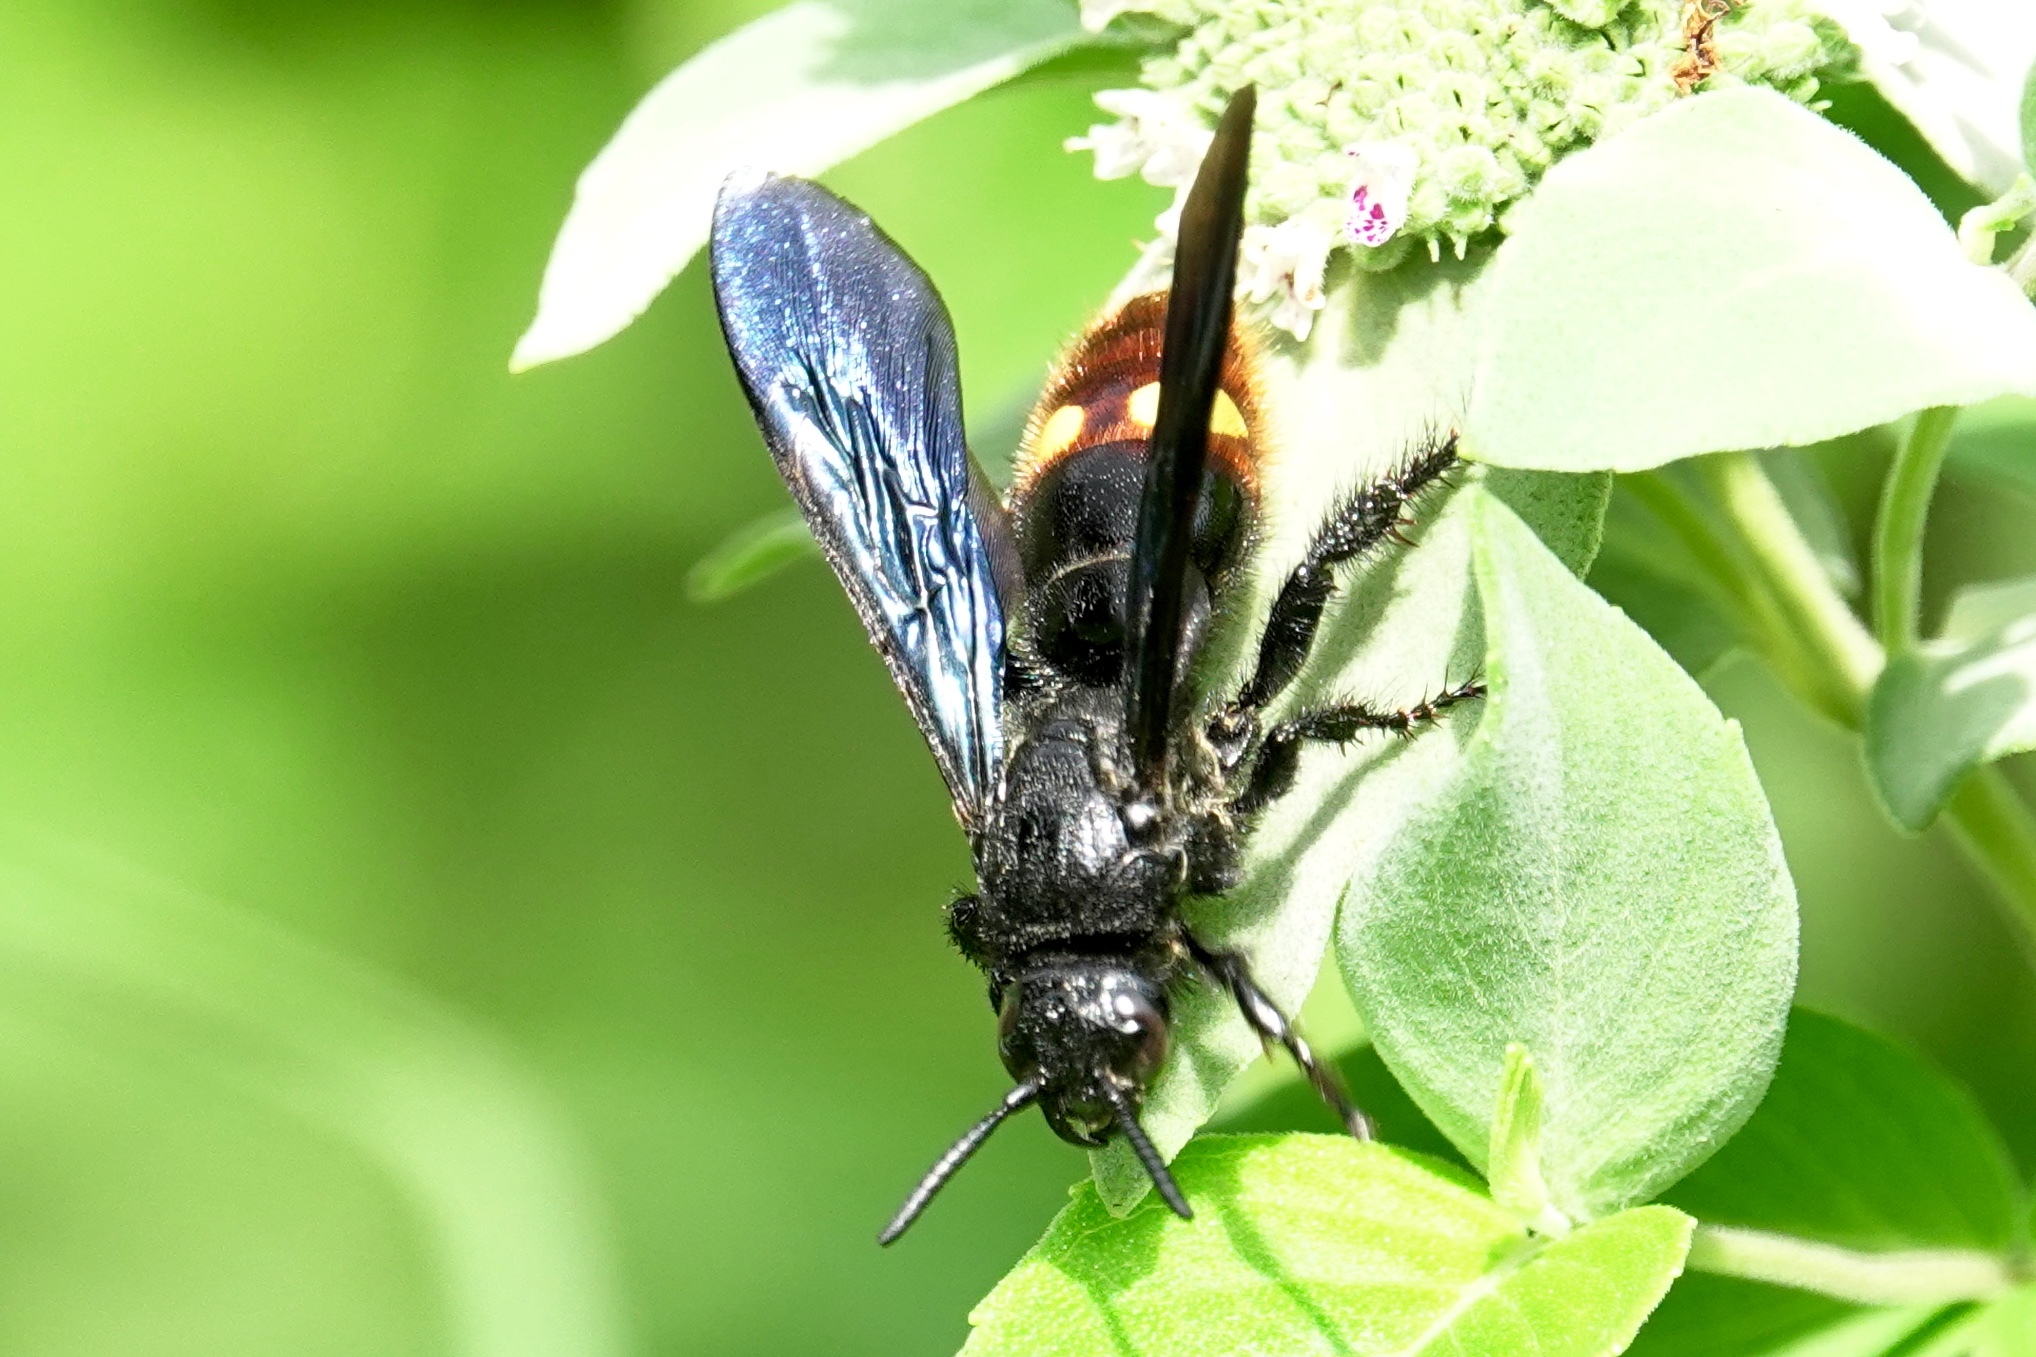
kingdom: Animalia
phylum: Arthropoda
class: Insecta
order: Hymenoptera
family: Scoliidae
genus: Scolia
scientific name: Scolia dubia
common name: Blue-winged scoliid wasp
